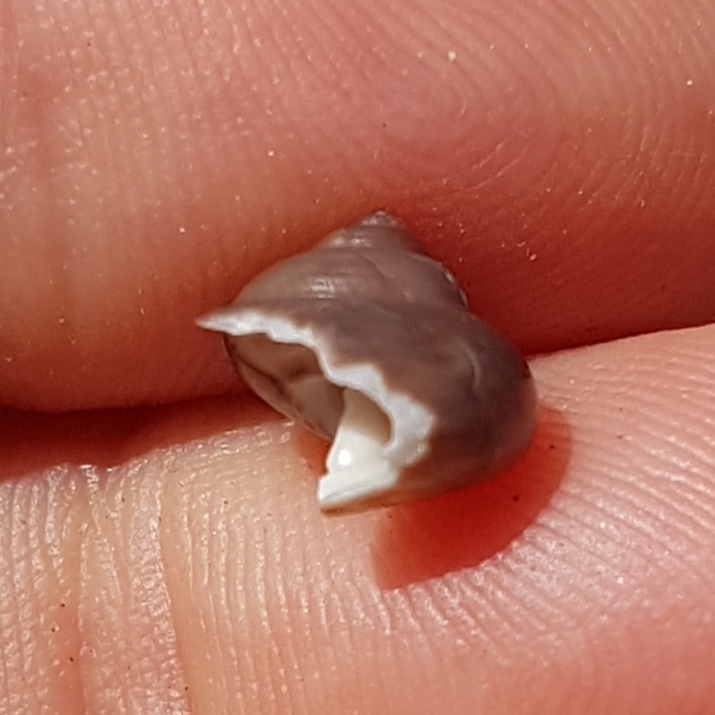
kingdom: Animalia
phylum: Mollusca
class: Gastropoda
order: Trochida
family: Trochidae
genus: Clanculus
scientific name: Clanculus jussieui
